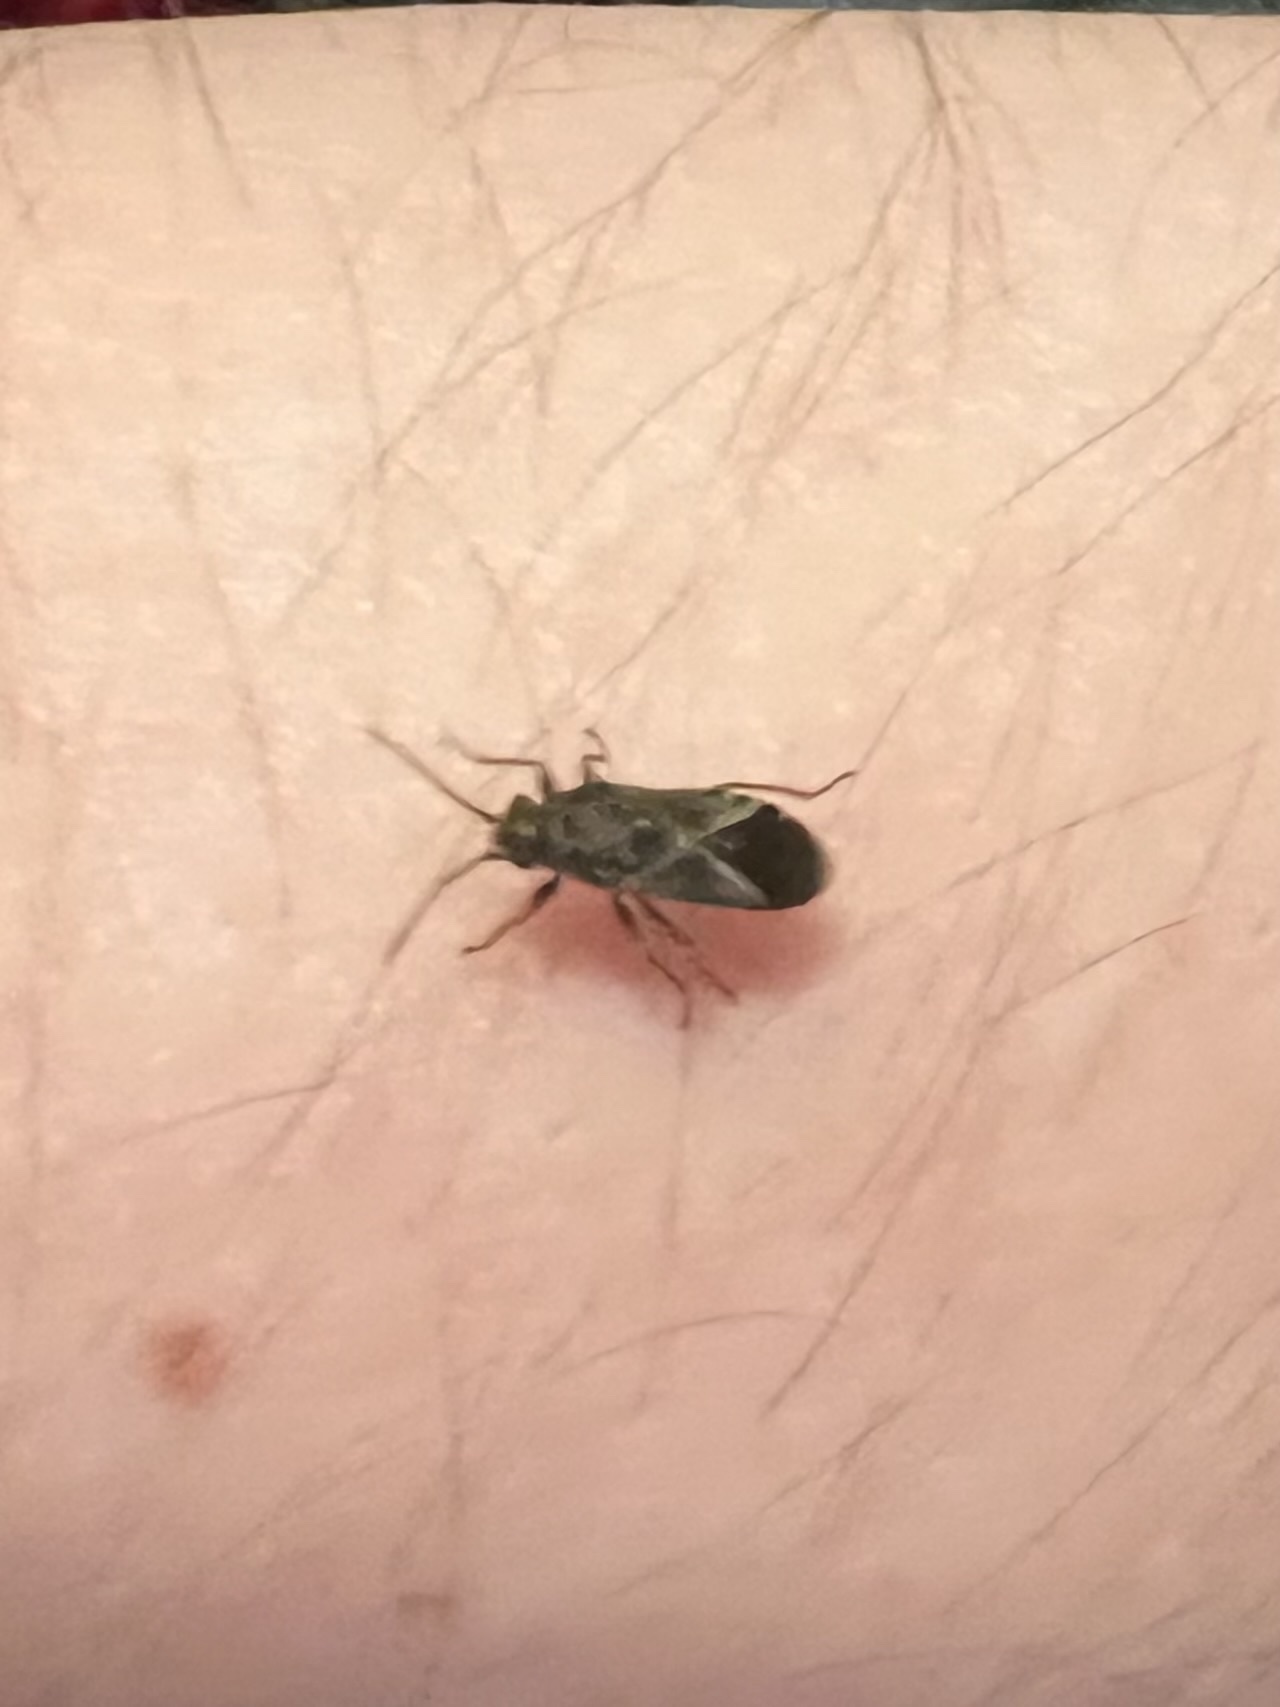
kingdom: Animalia
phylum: Arthropoda
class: Insecta
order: Hemiptera
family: Lygaeidae
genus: Arocatus
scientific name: Arocatus melanocephalus
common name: Lygaeid bug
